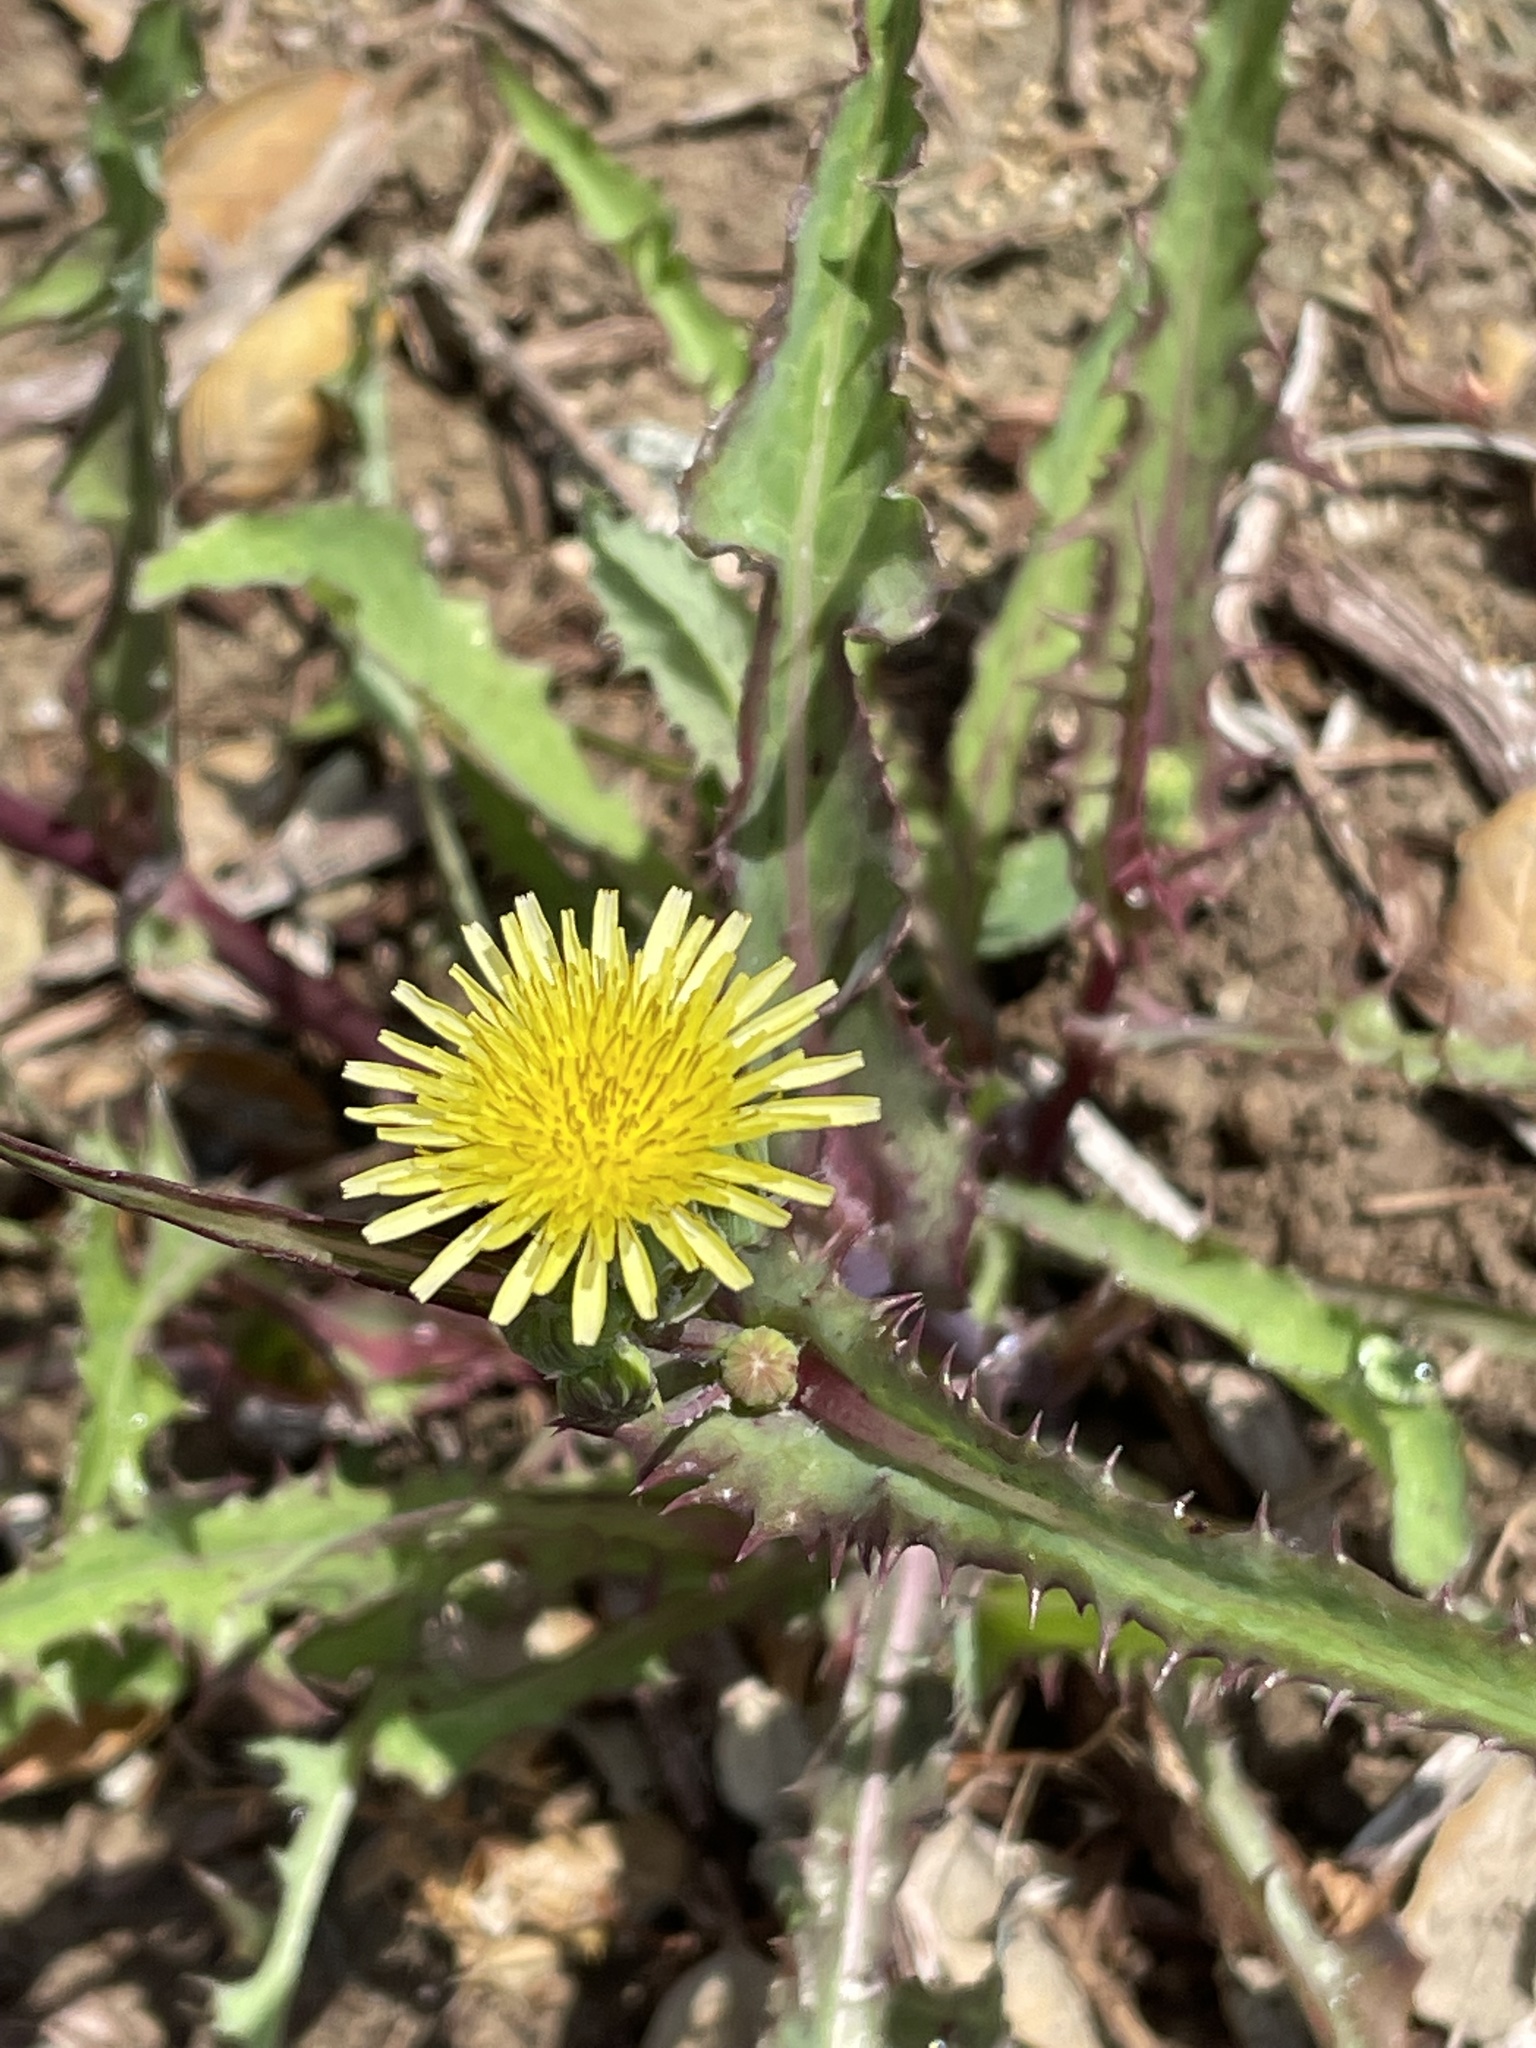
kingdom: Plantae
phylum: Tracheophyta
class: Magnoliopsida
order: Asterales
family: Asteraceae
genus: Sonchus
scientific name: Sonchus asper
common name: Prickly sow-thistle
